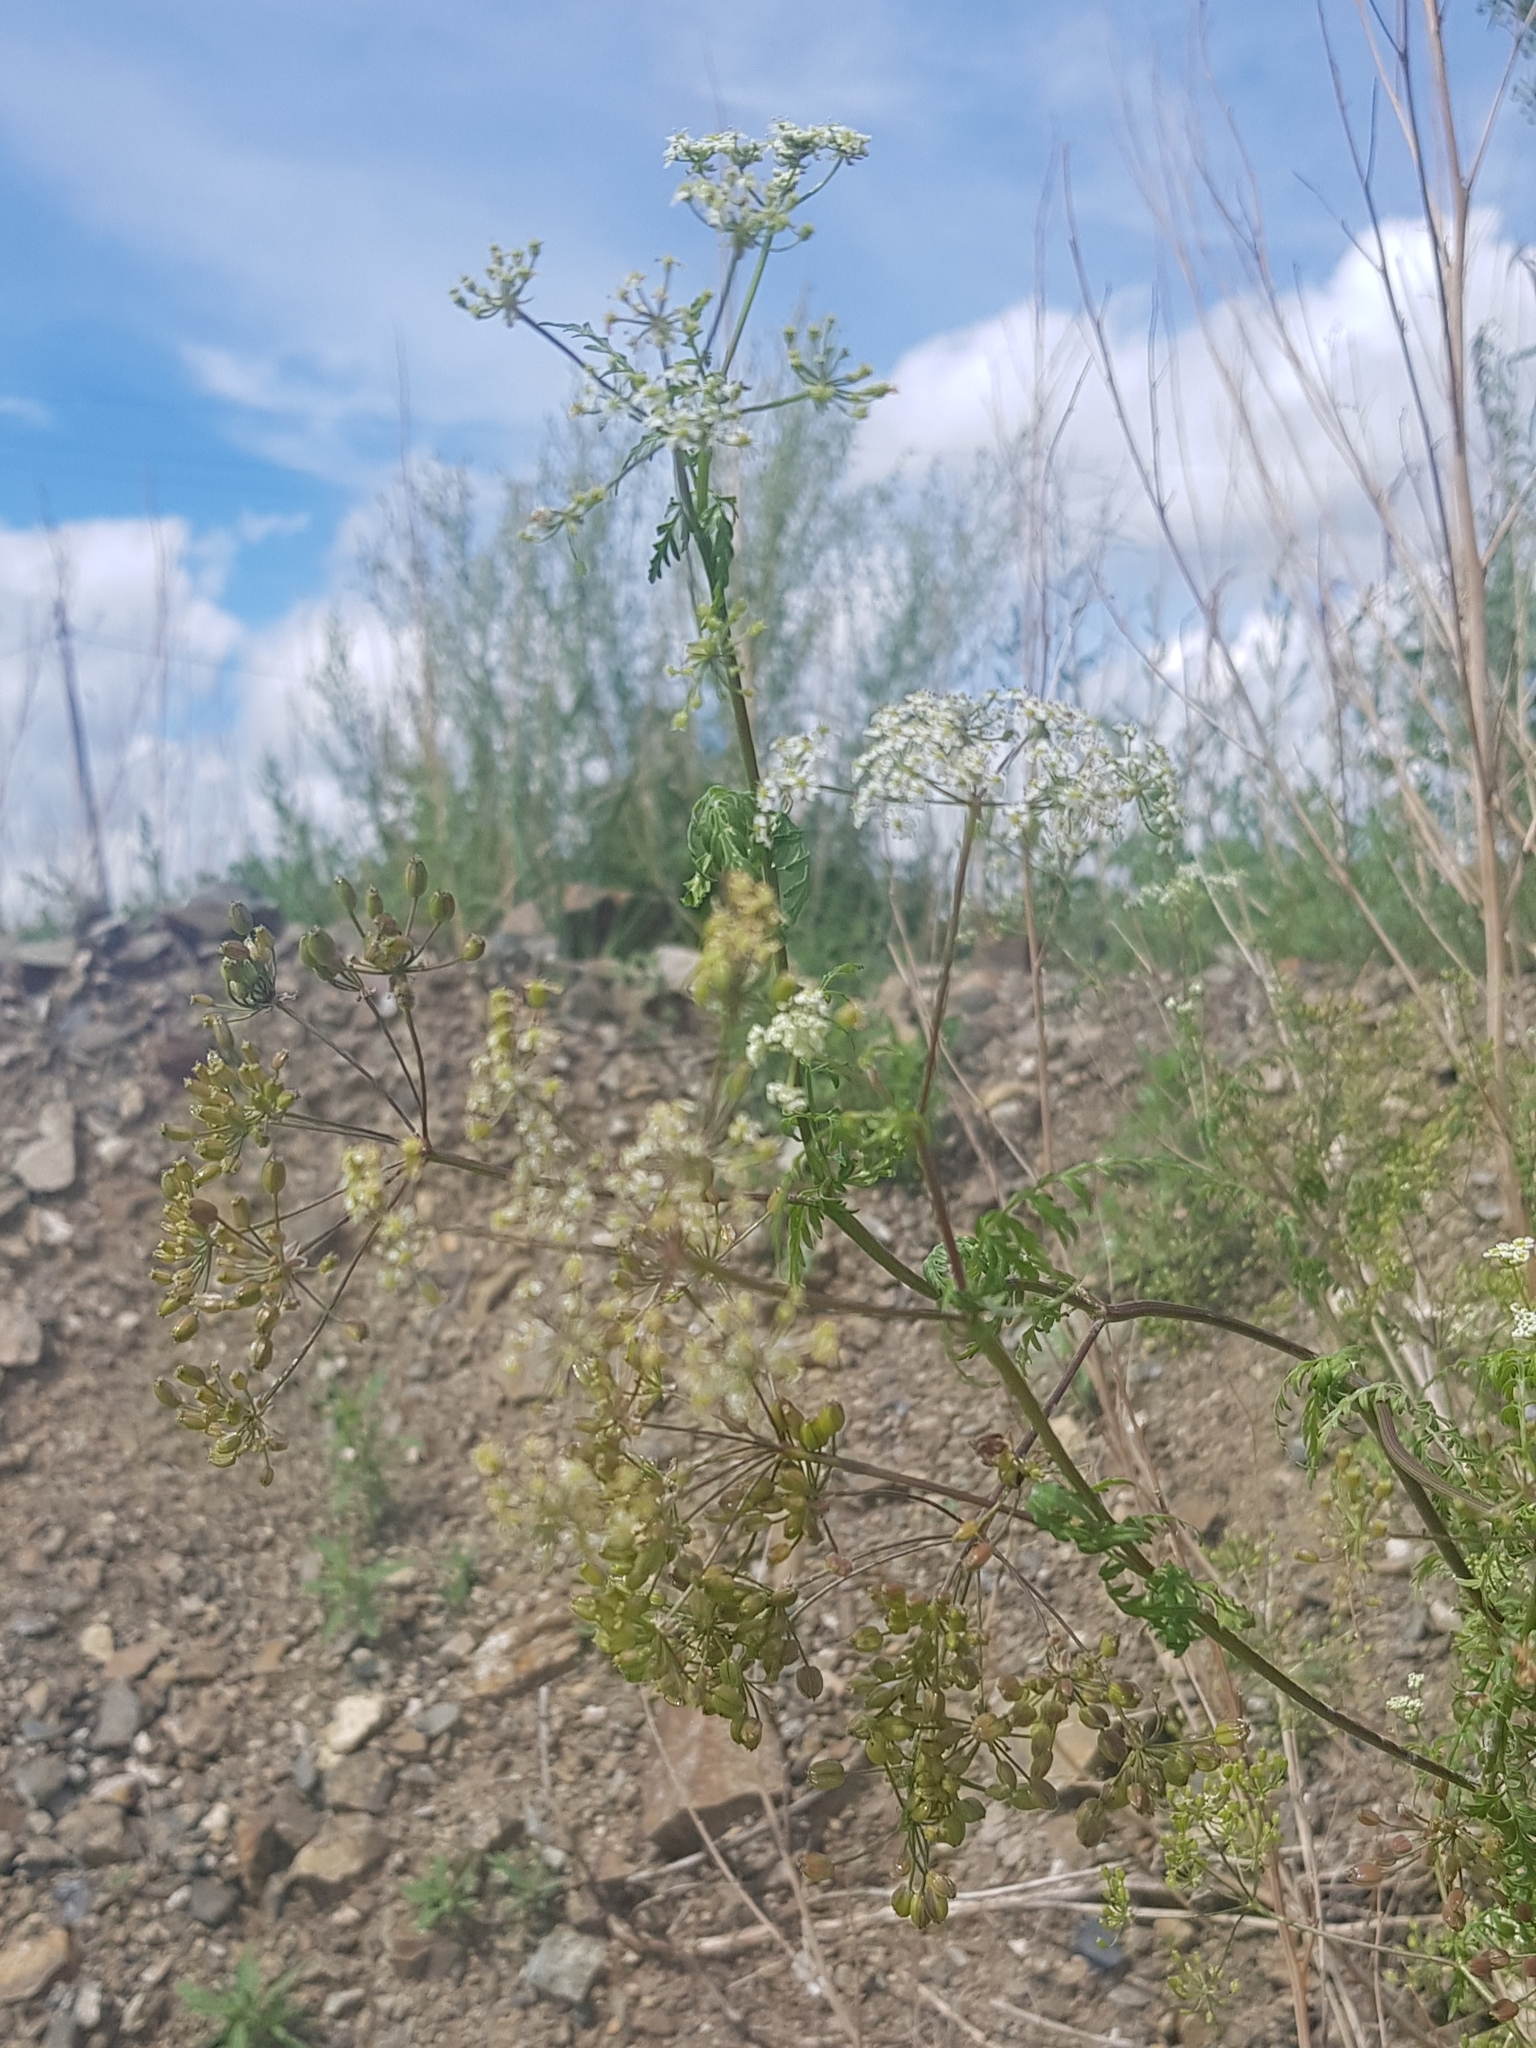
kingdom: Plantae
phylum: Tracheophyta
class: Magnoliopsida
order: Apiales
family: Apiaceae
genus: Sphallerocarpus
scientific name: Sphallerocarpus gracilis
